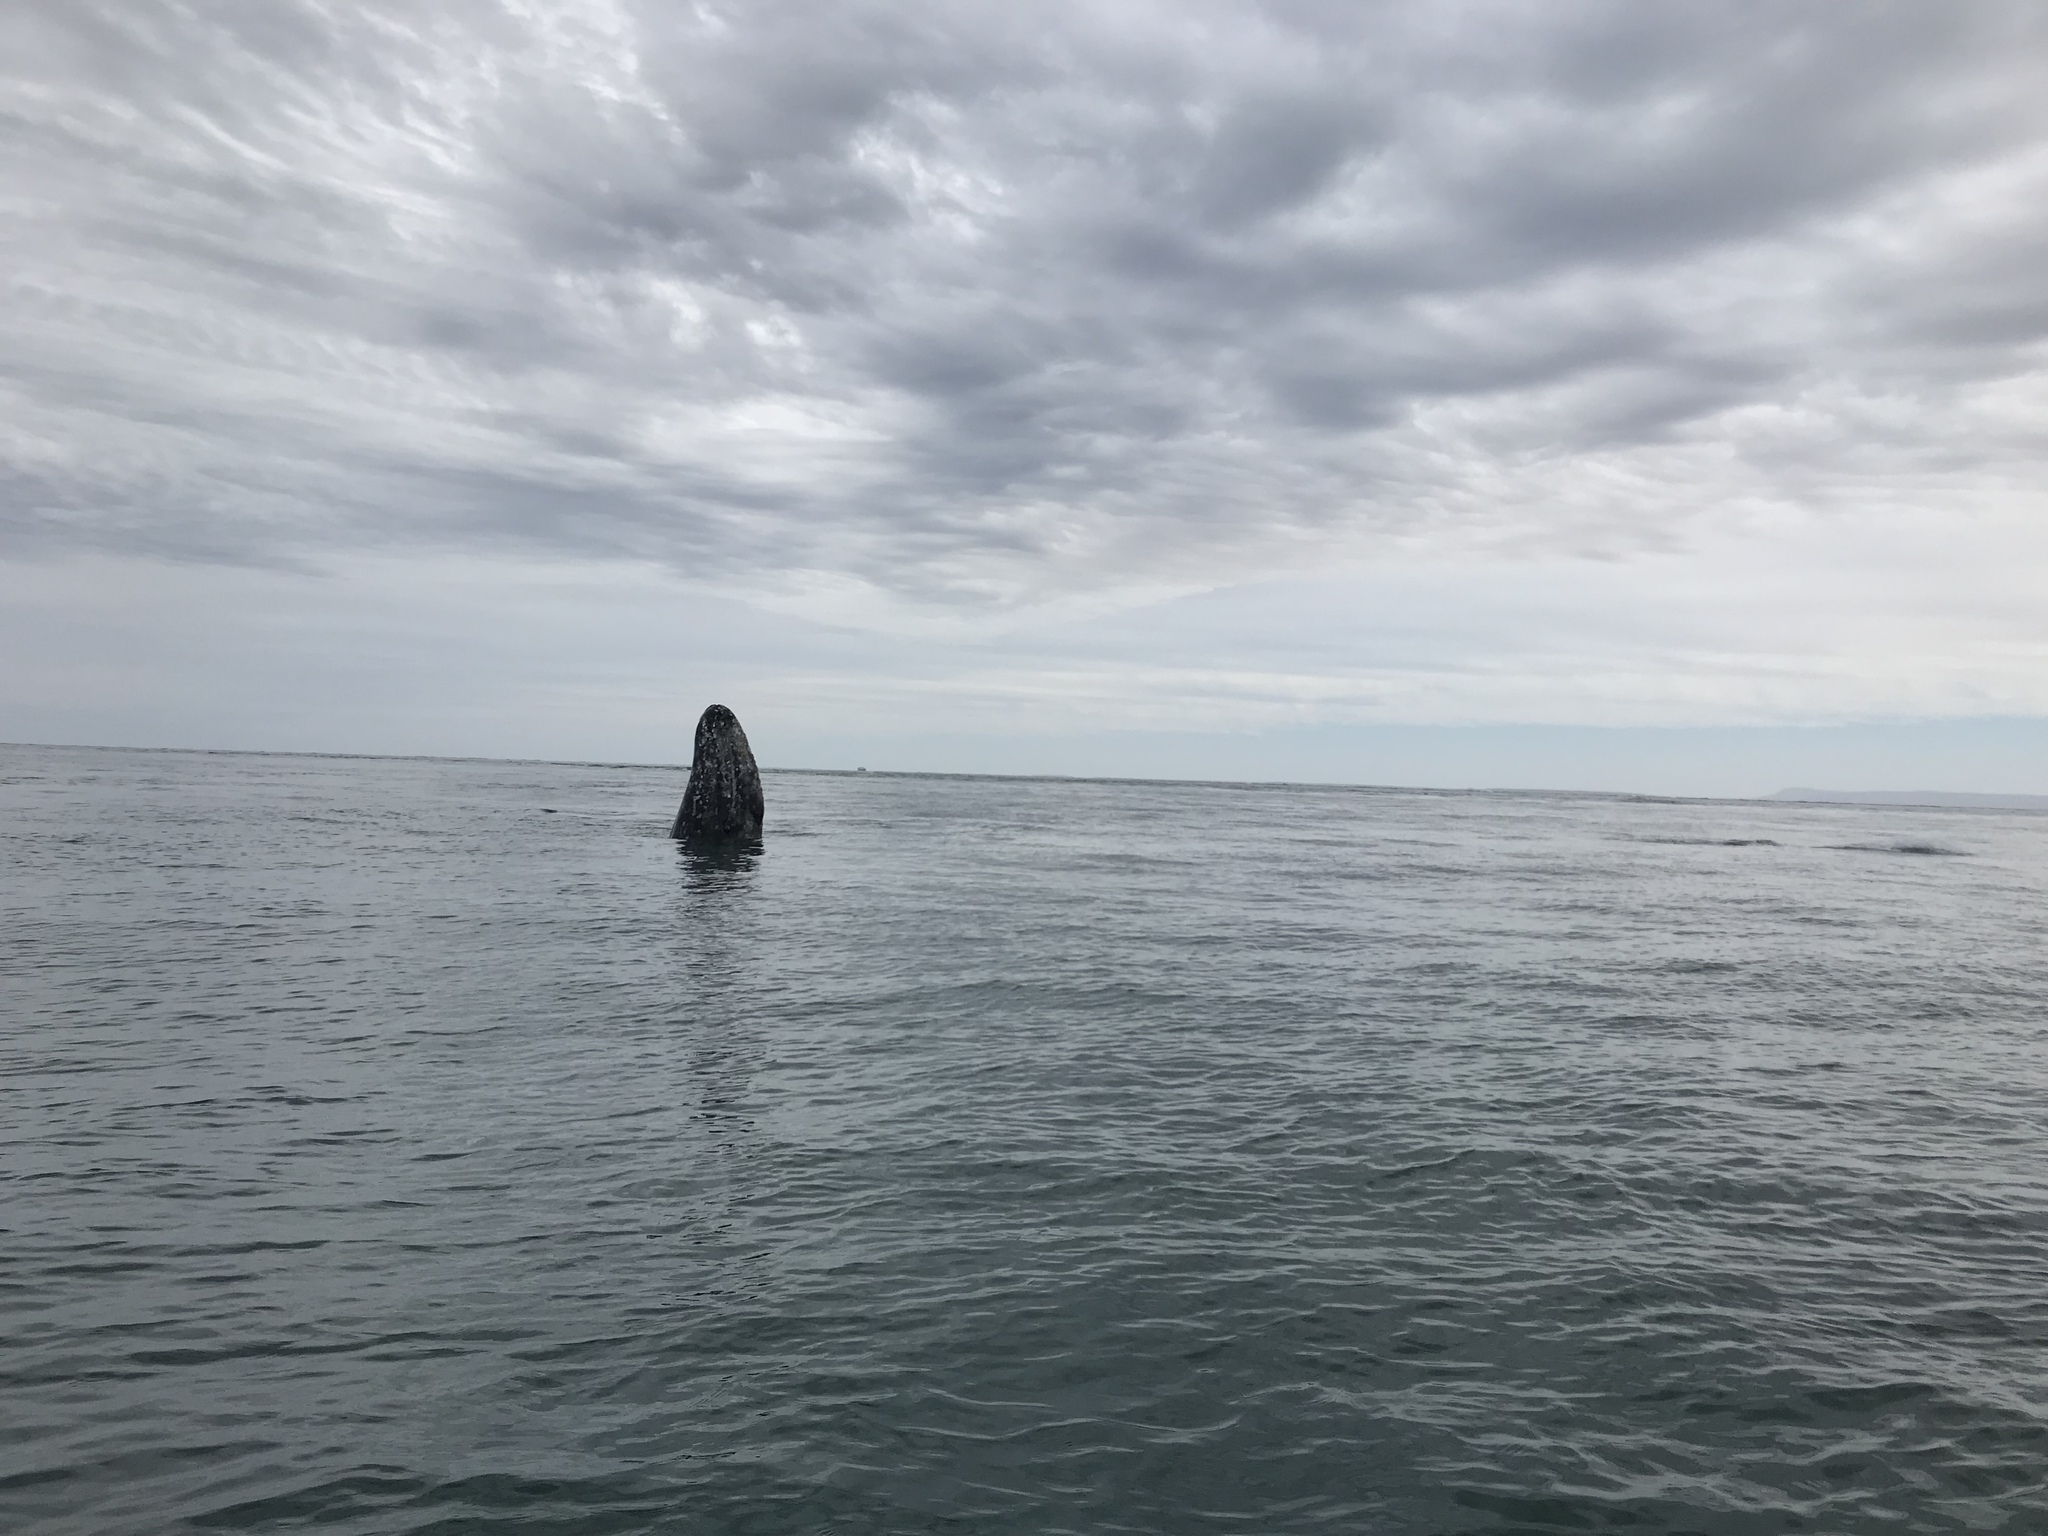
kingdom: Animalia
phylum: Chordata
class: Mammalia
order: Cetacea
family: Eschrichtiidae
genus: Eschrichtius
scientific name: Eschrichtius robustus
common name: Gray whale
